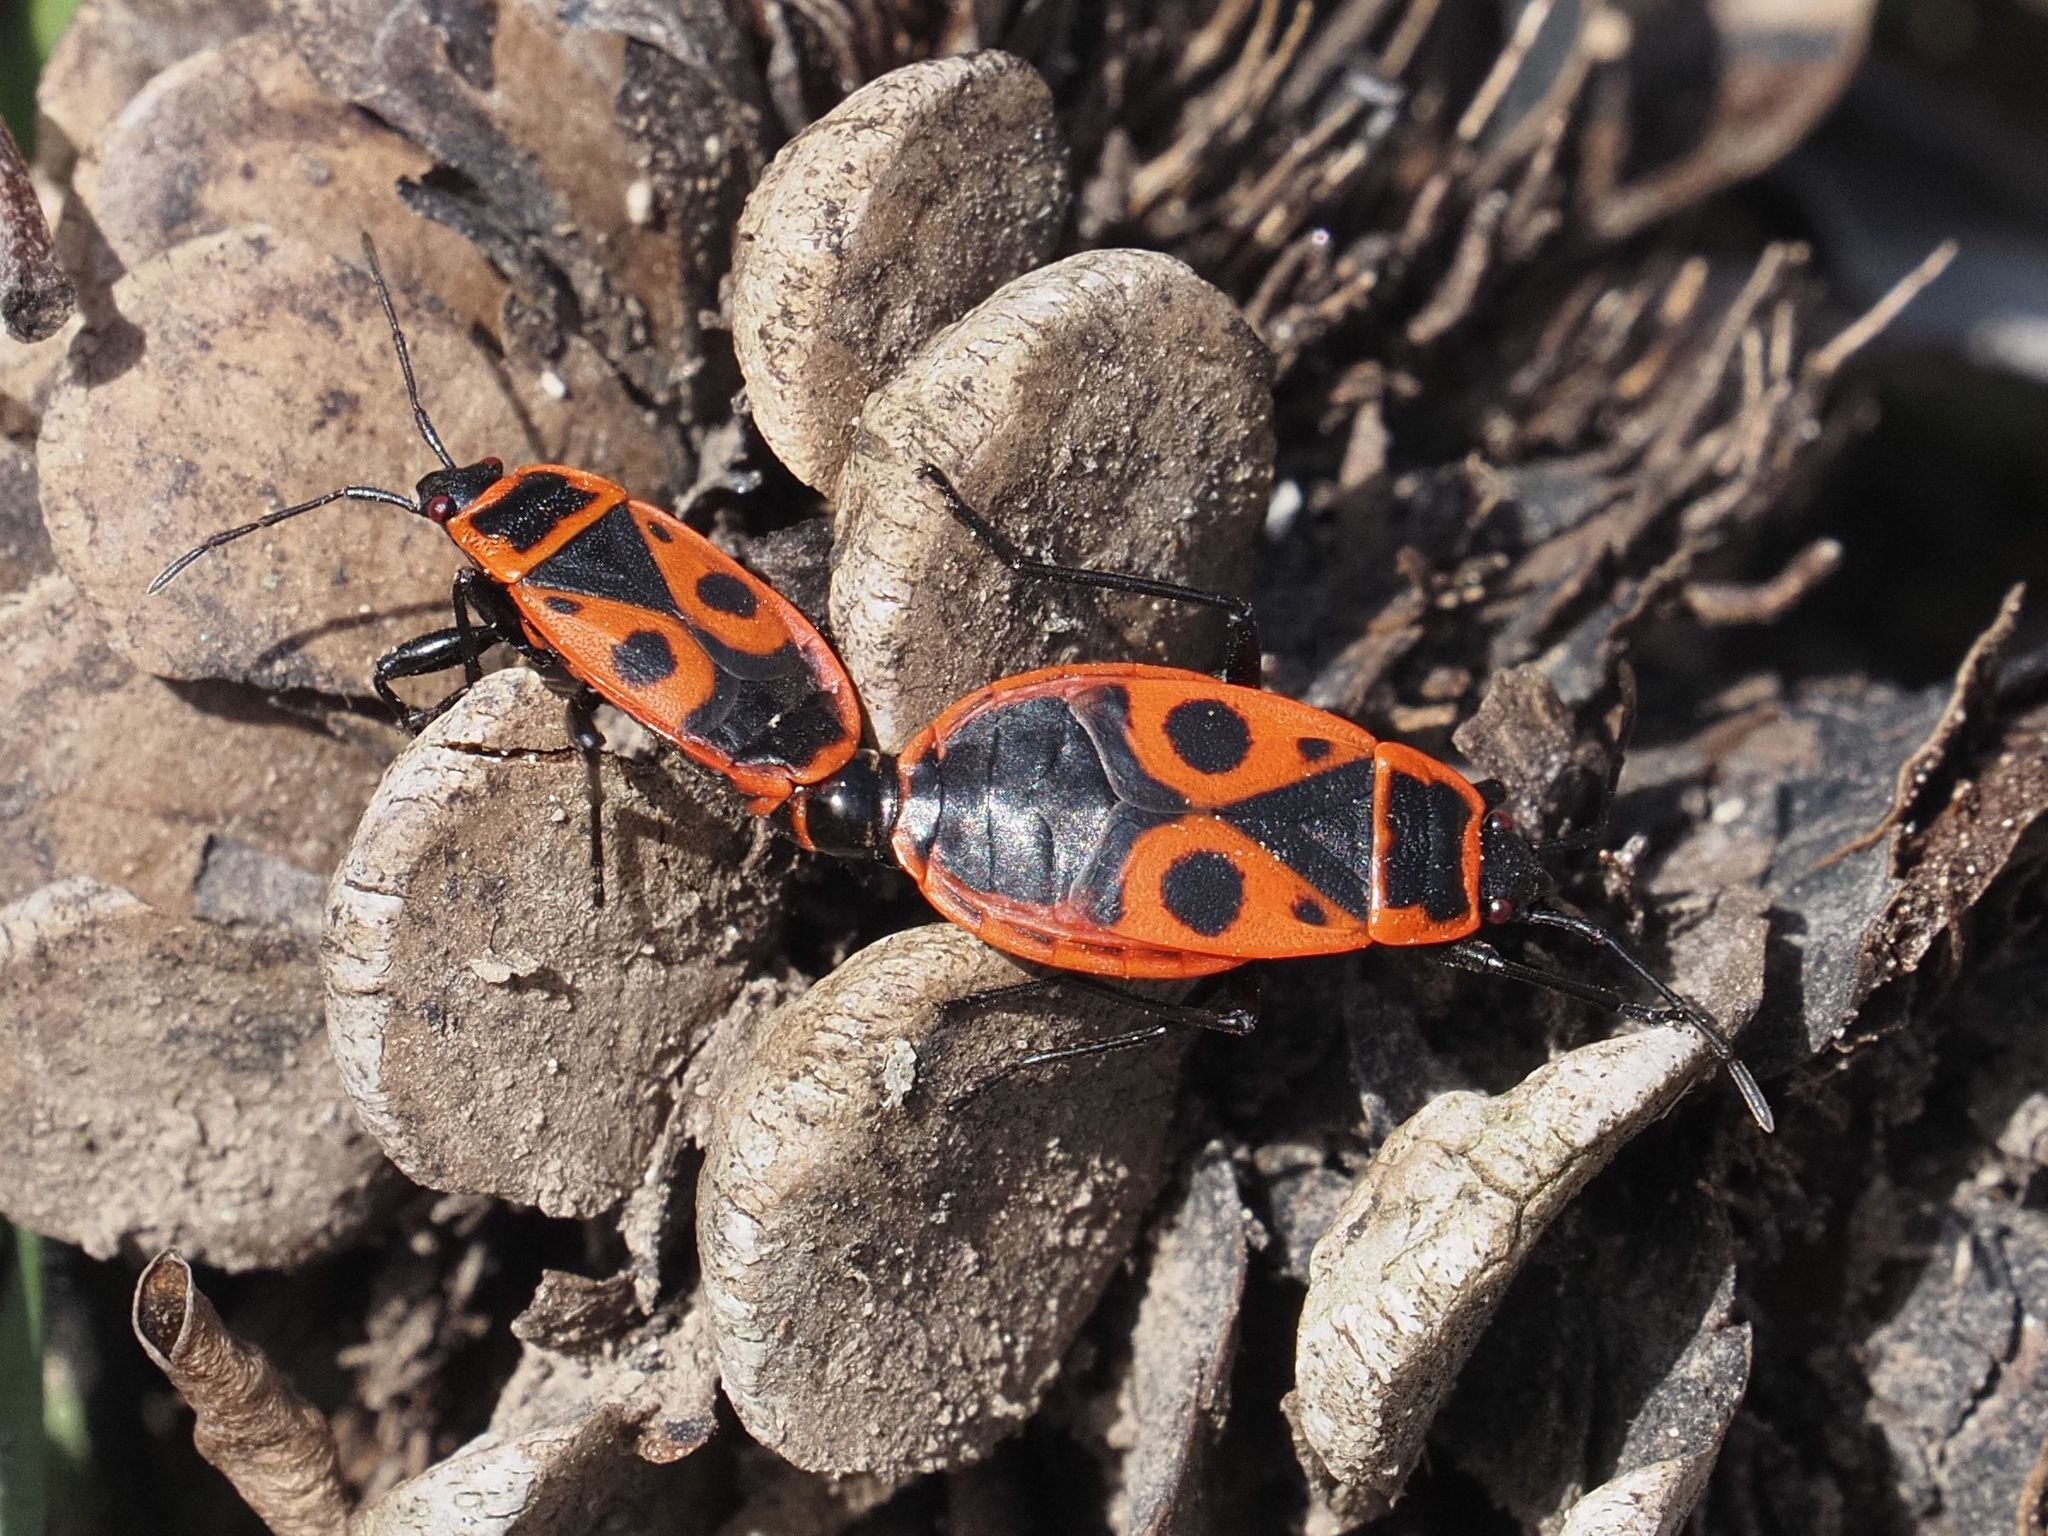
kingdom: Animalia
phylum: Arthropoda
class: Insecta
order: Hemiptera
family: Pyrrhocoridae
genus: Pyrrhocoris
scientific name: Pyrrhocoris apterus
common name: Firebug
